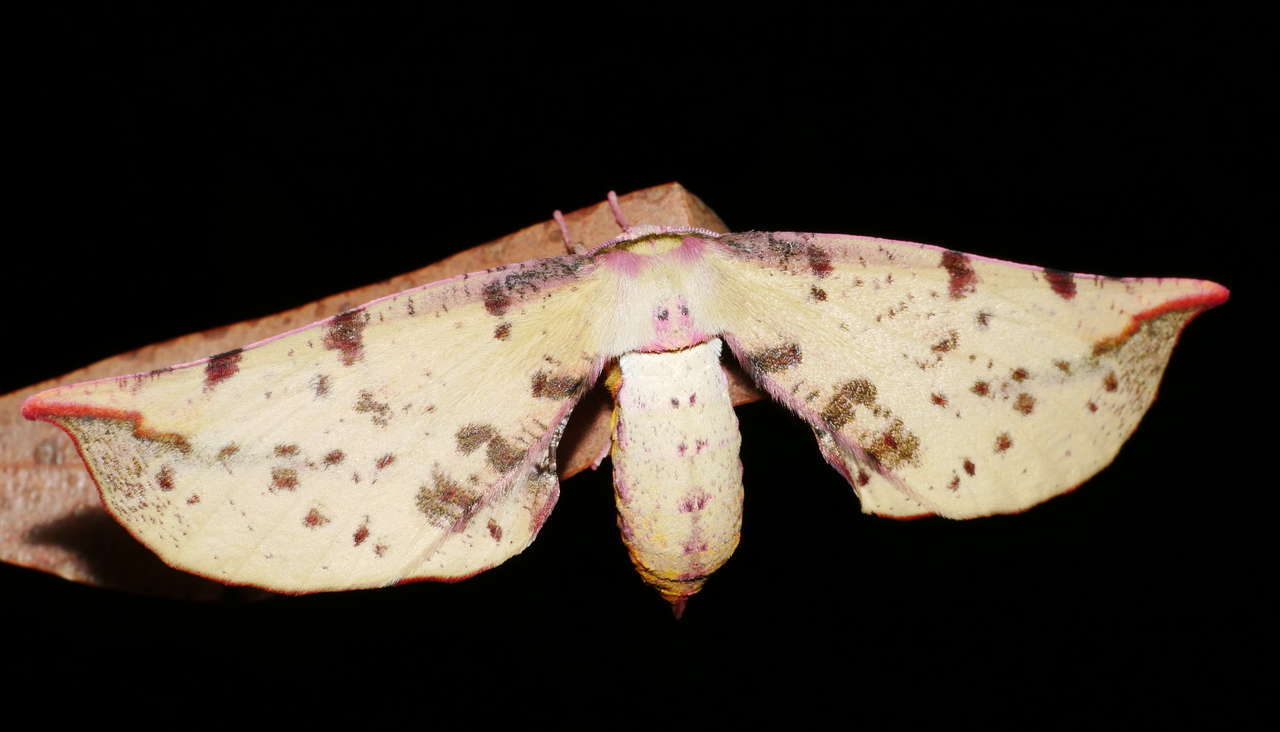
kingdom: Animalia
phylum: Arthropoda
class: Insecta
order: Lepidoptera
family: Geometridae
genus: Parepisparis
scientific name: Parepisparis lutosaria
